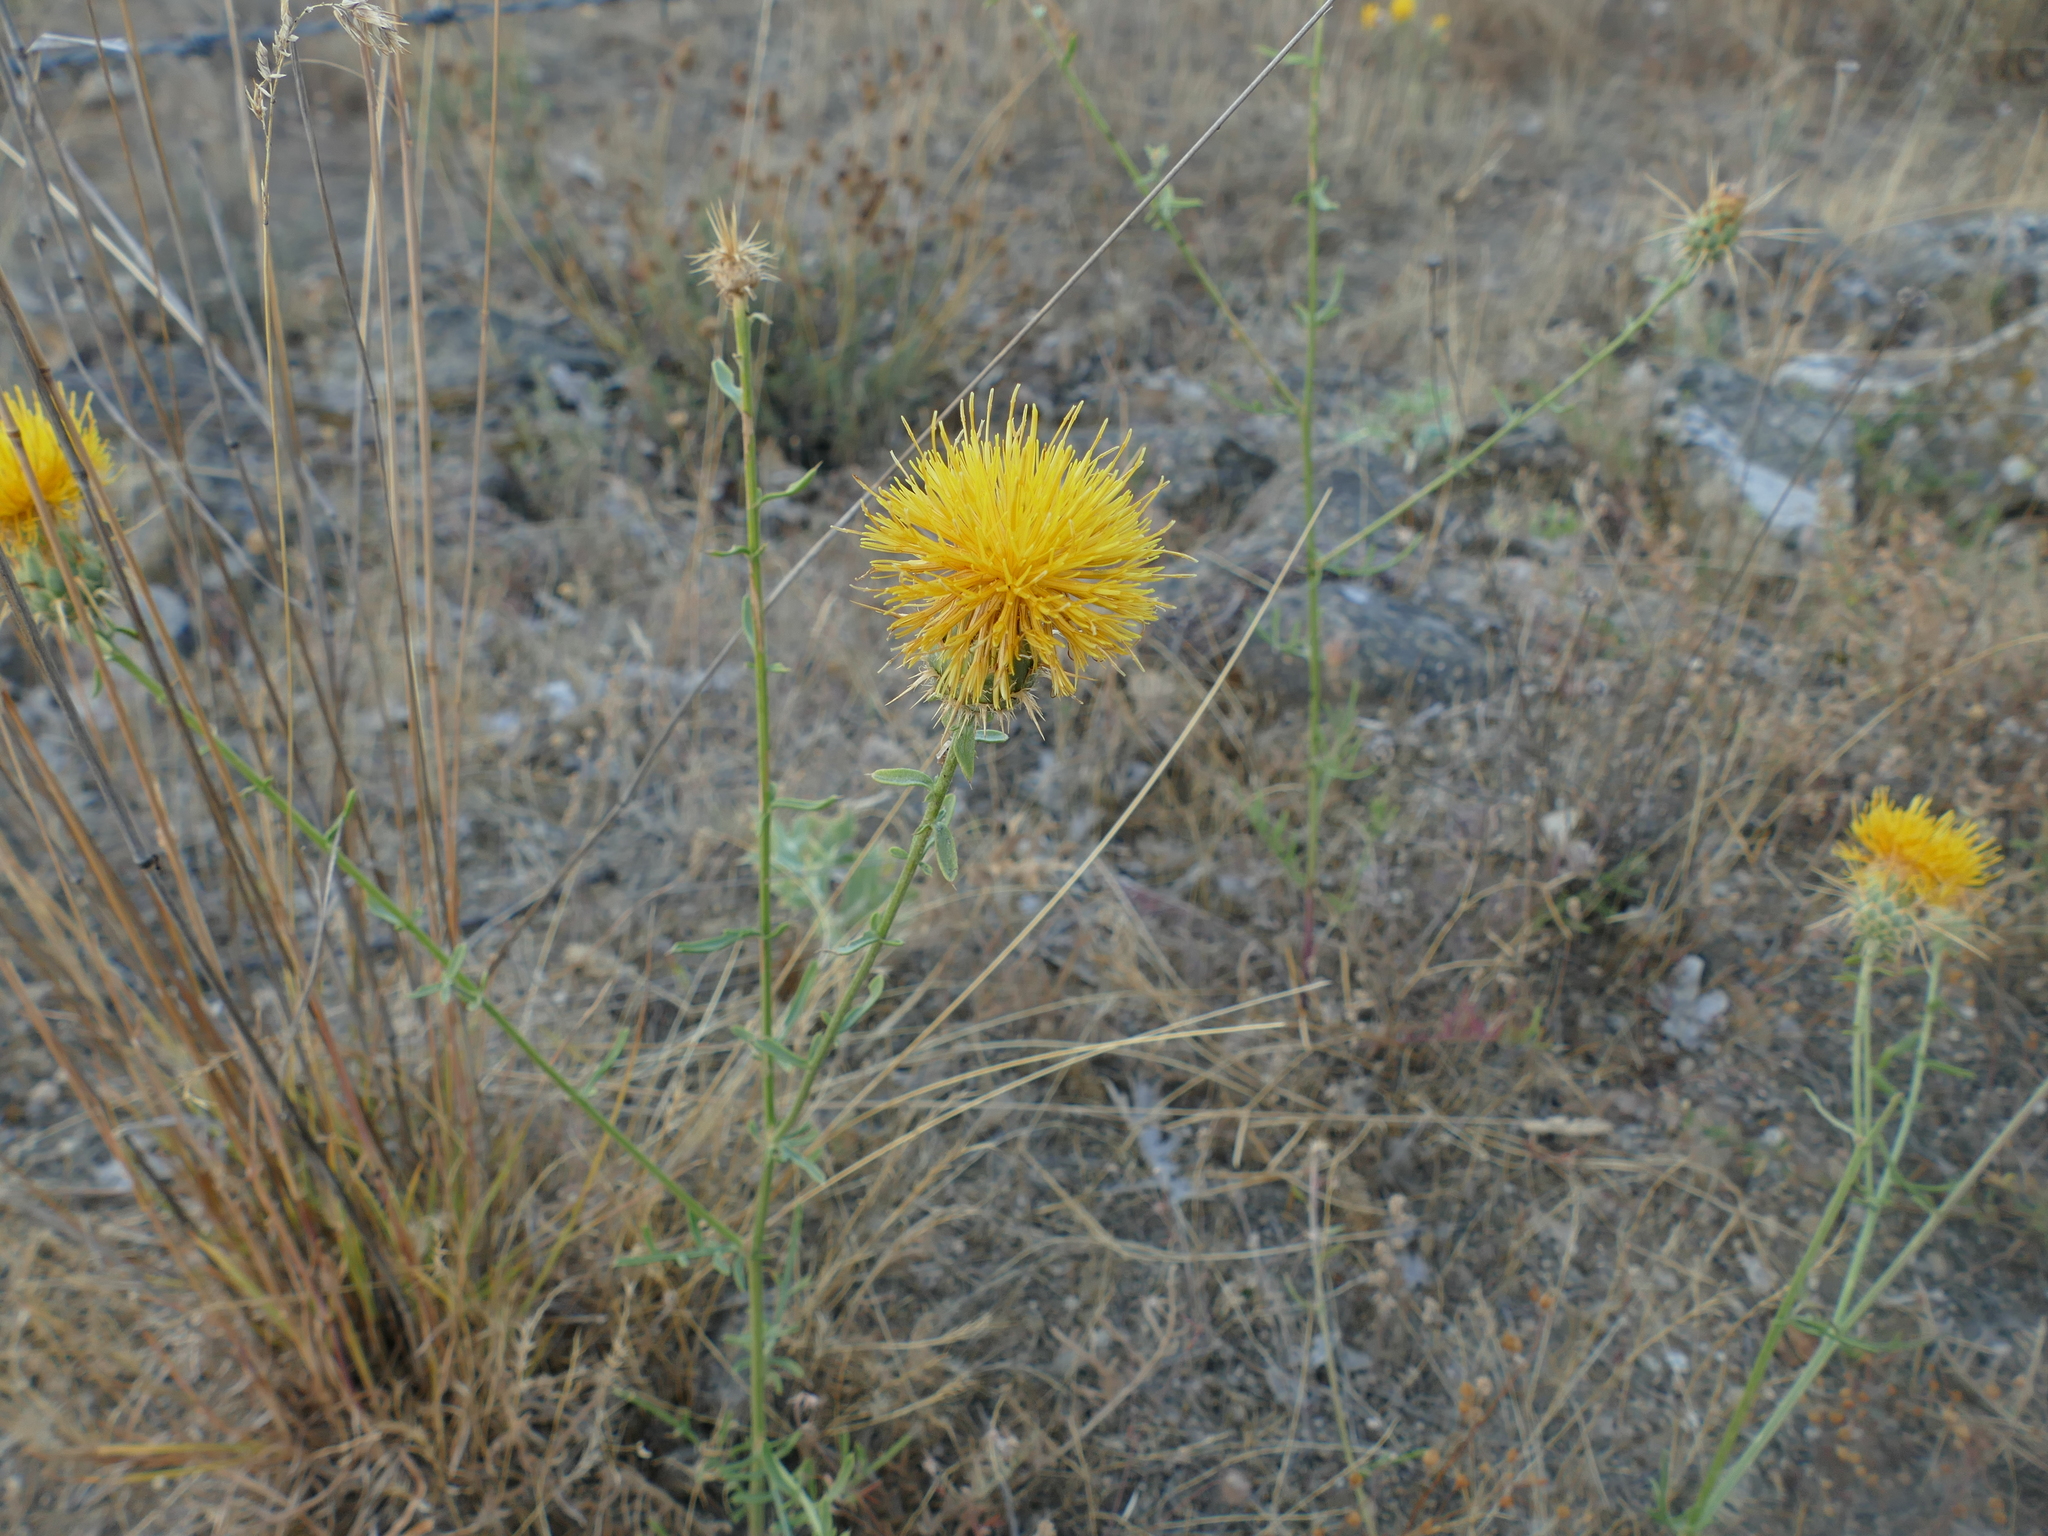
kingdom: Plantae
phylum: Tracheophyta
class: Magnoliopsida
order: Asterales
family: Asteraceae
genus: Centaurea
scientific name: Centaurea ornata
